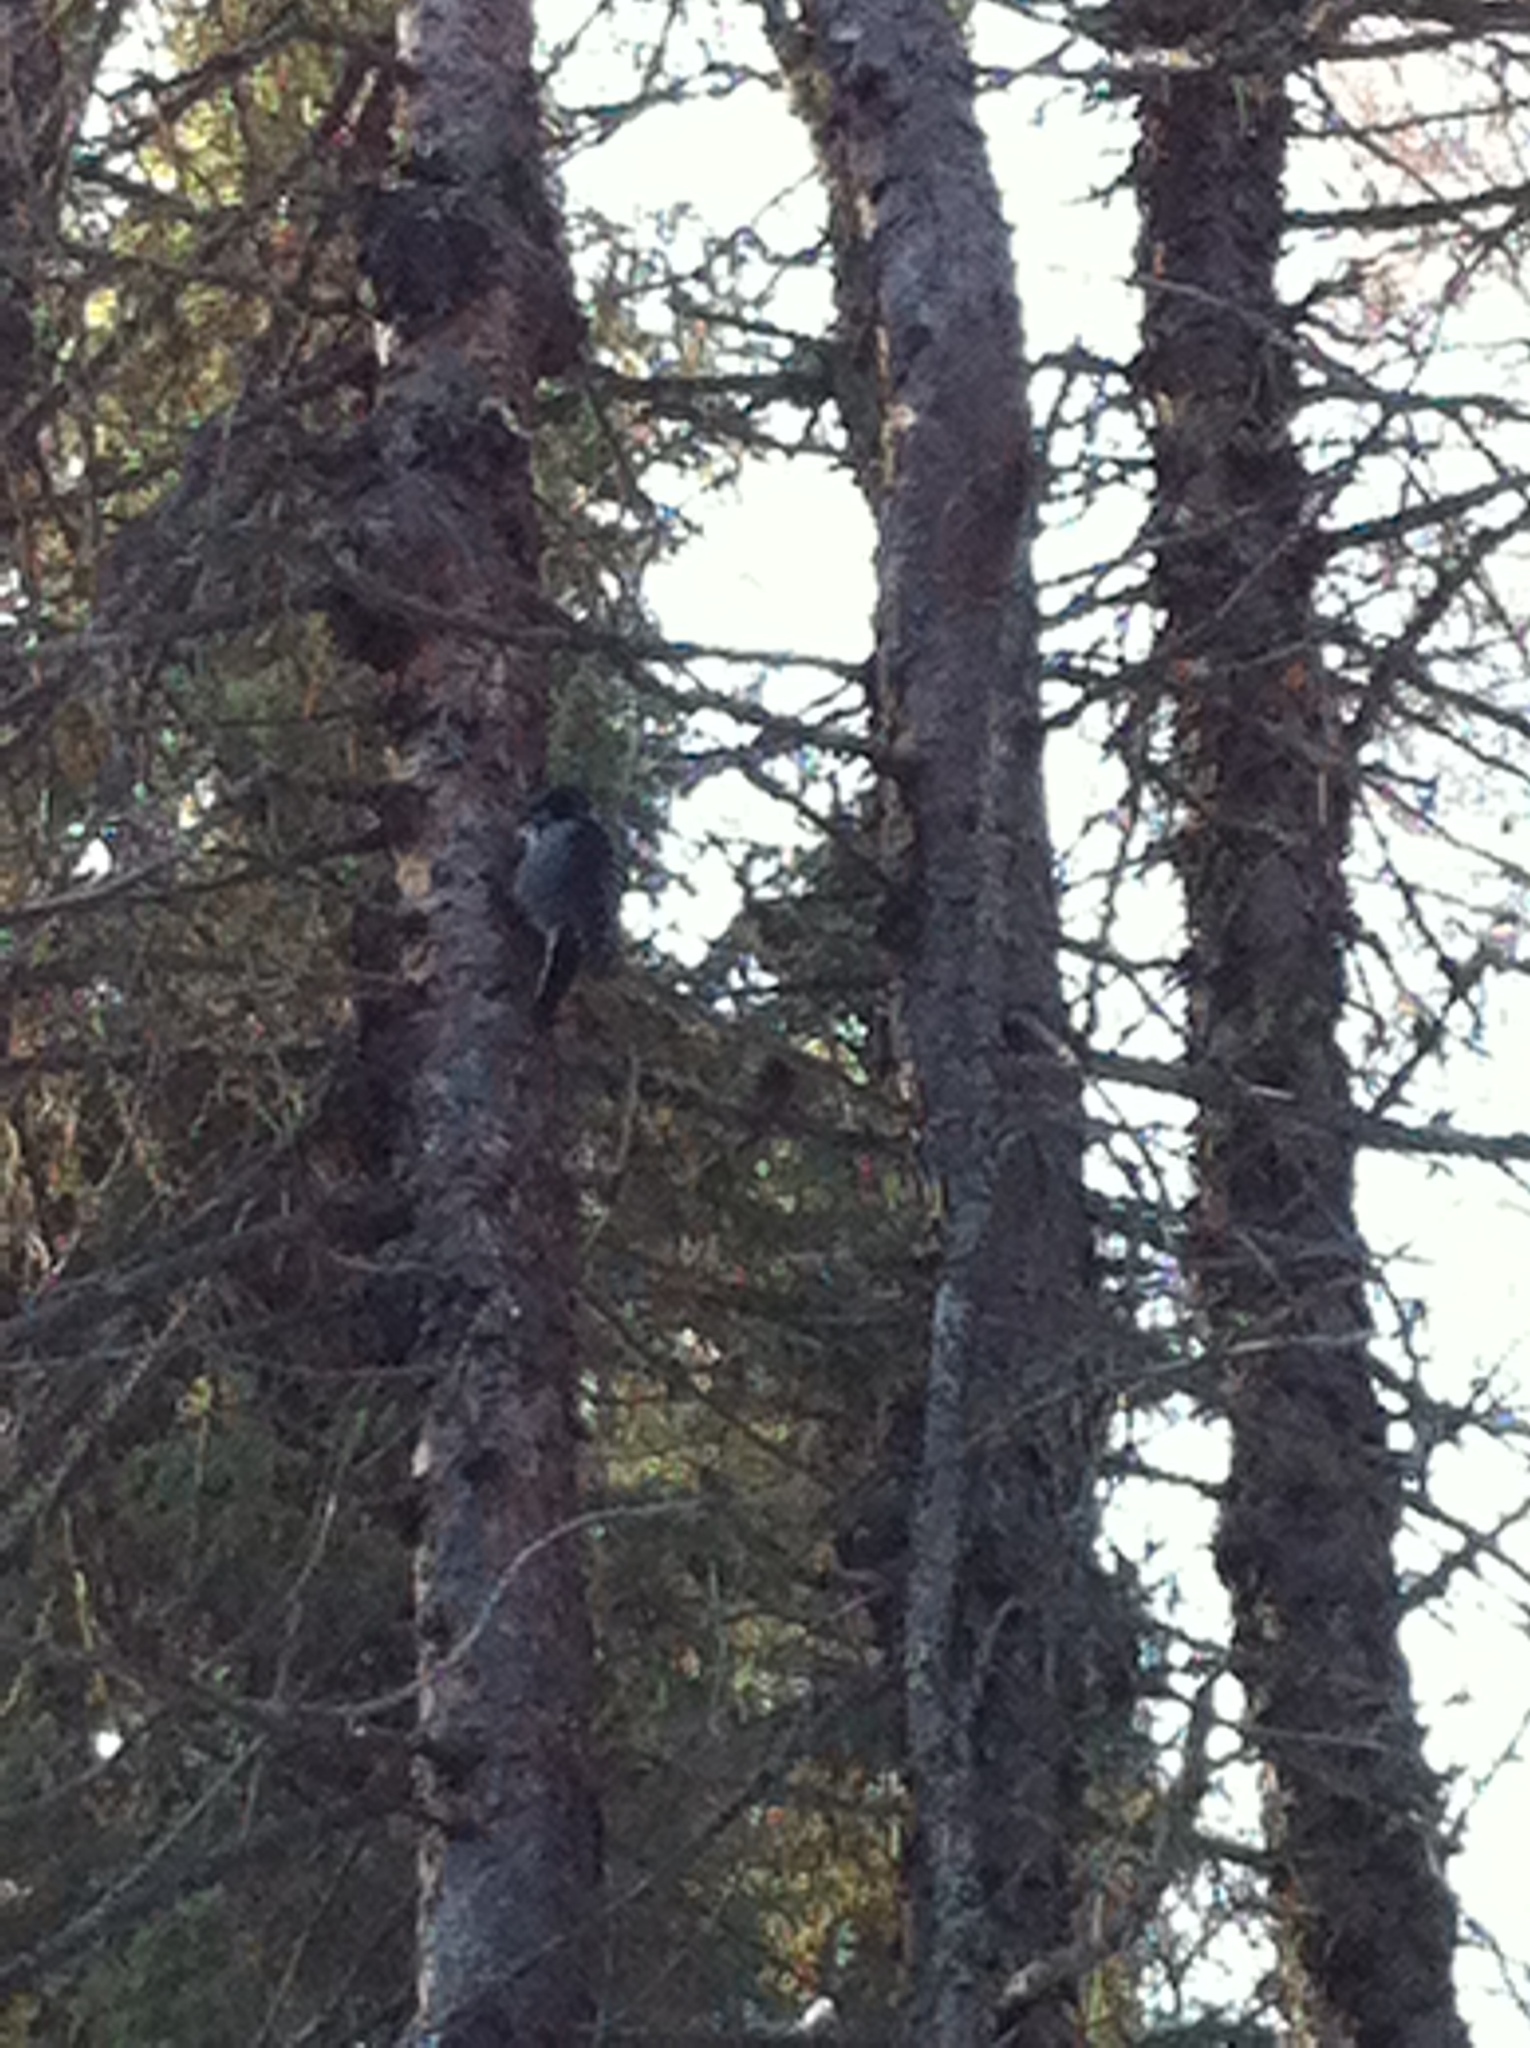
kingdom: Animalia
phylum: Chordata
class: Aves
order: Piciformes
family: Picidae
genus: Picoides
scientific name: Picoides dorsalis
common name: American three-toed woodpecker
